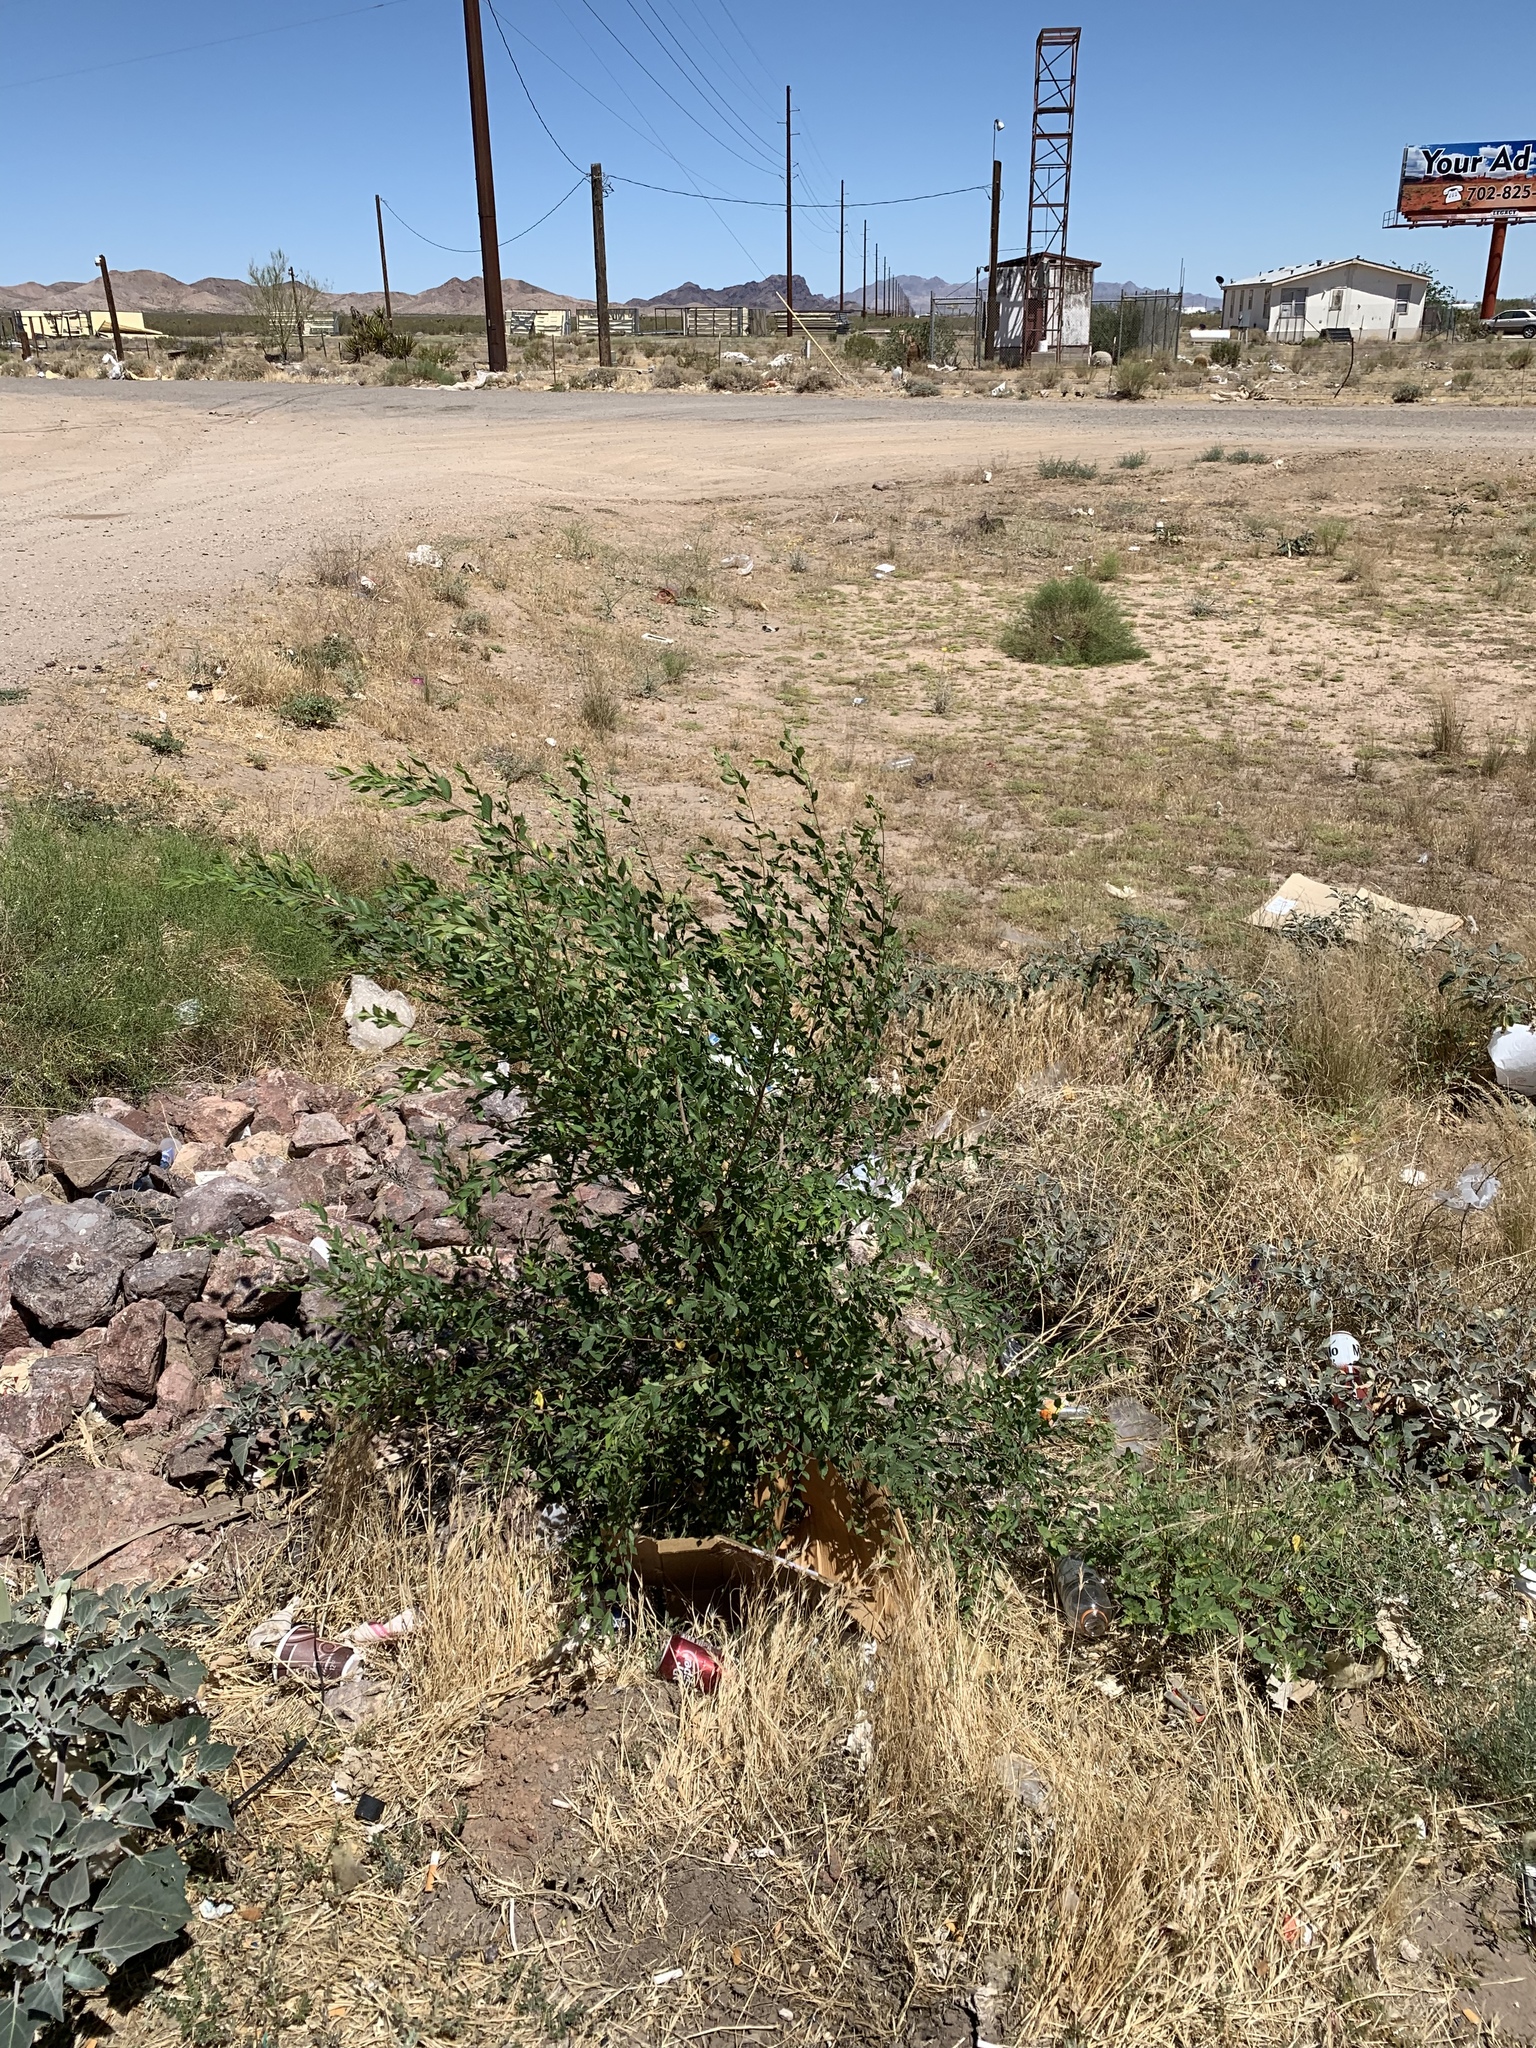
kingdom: Plantae
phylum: Tracheophyta
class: Magnoliopsida
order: Rosales
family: Ulmaceae
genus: Ulmus
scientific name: Ulmus parvifolia
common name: Chinese elm
